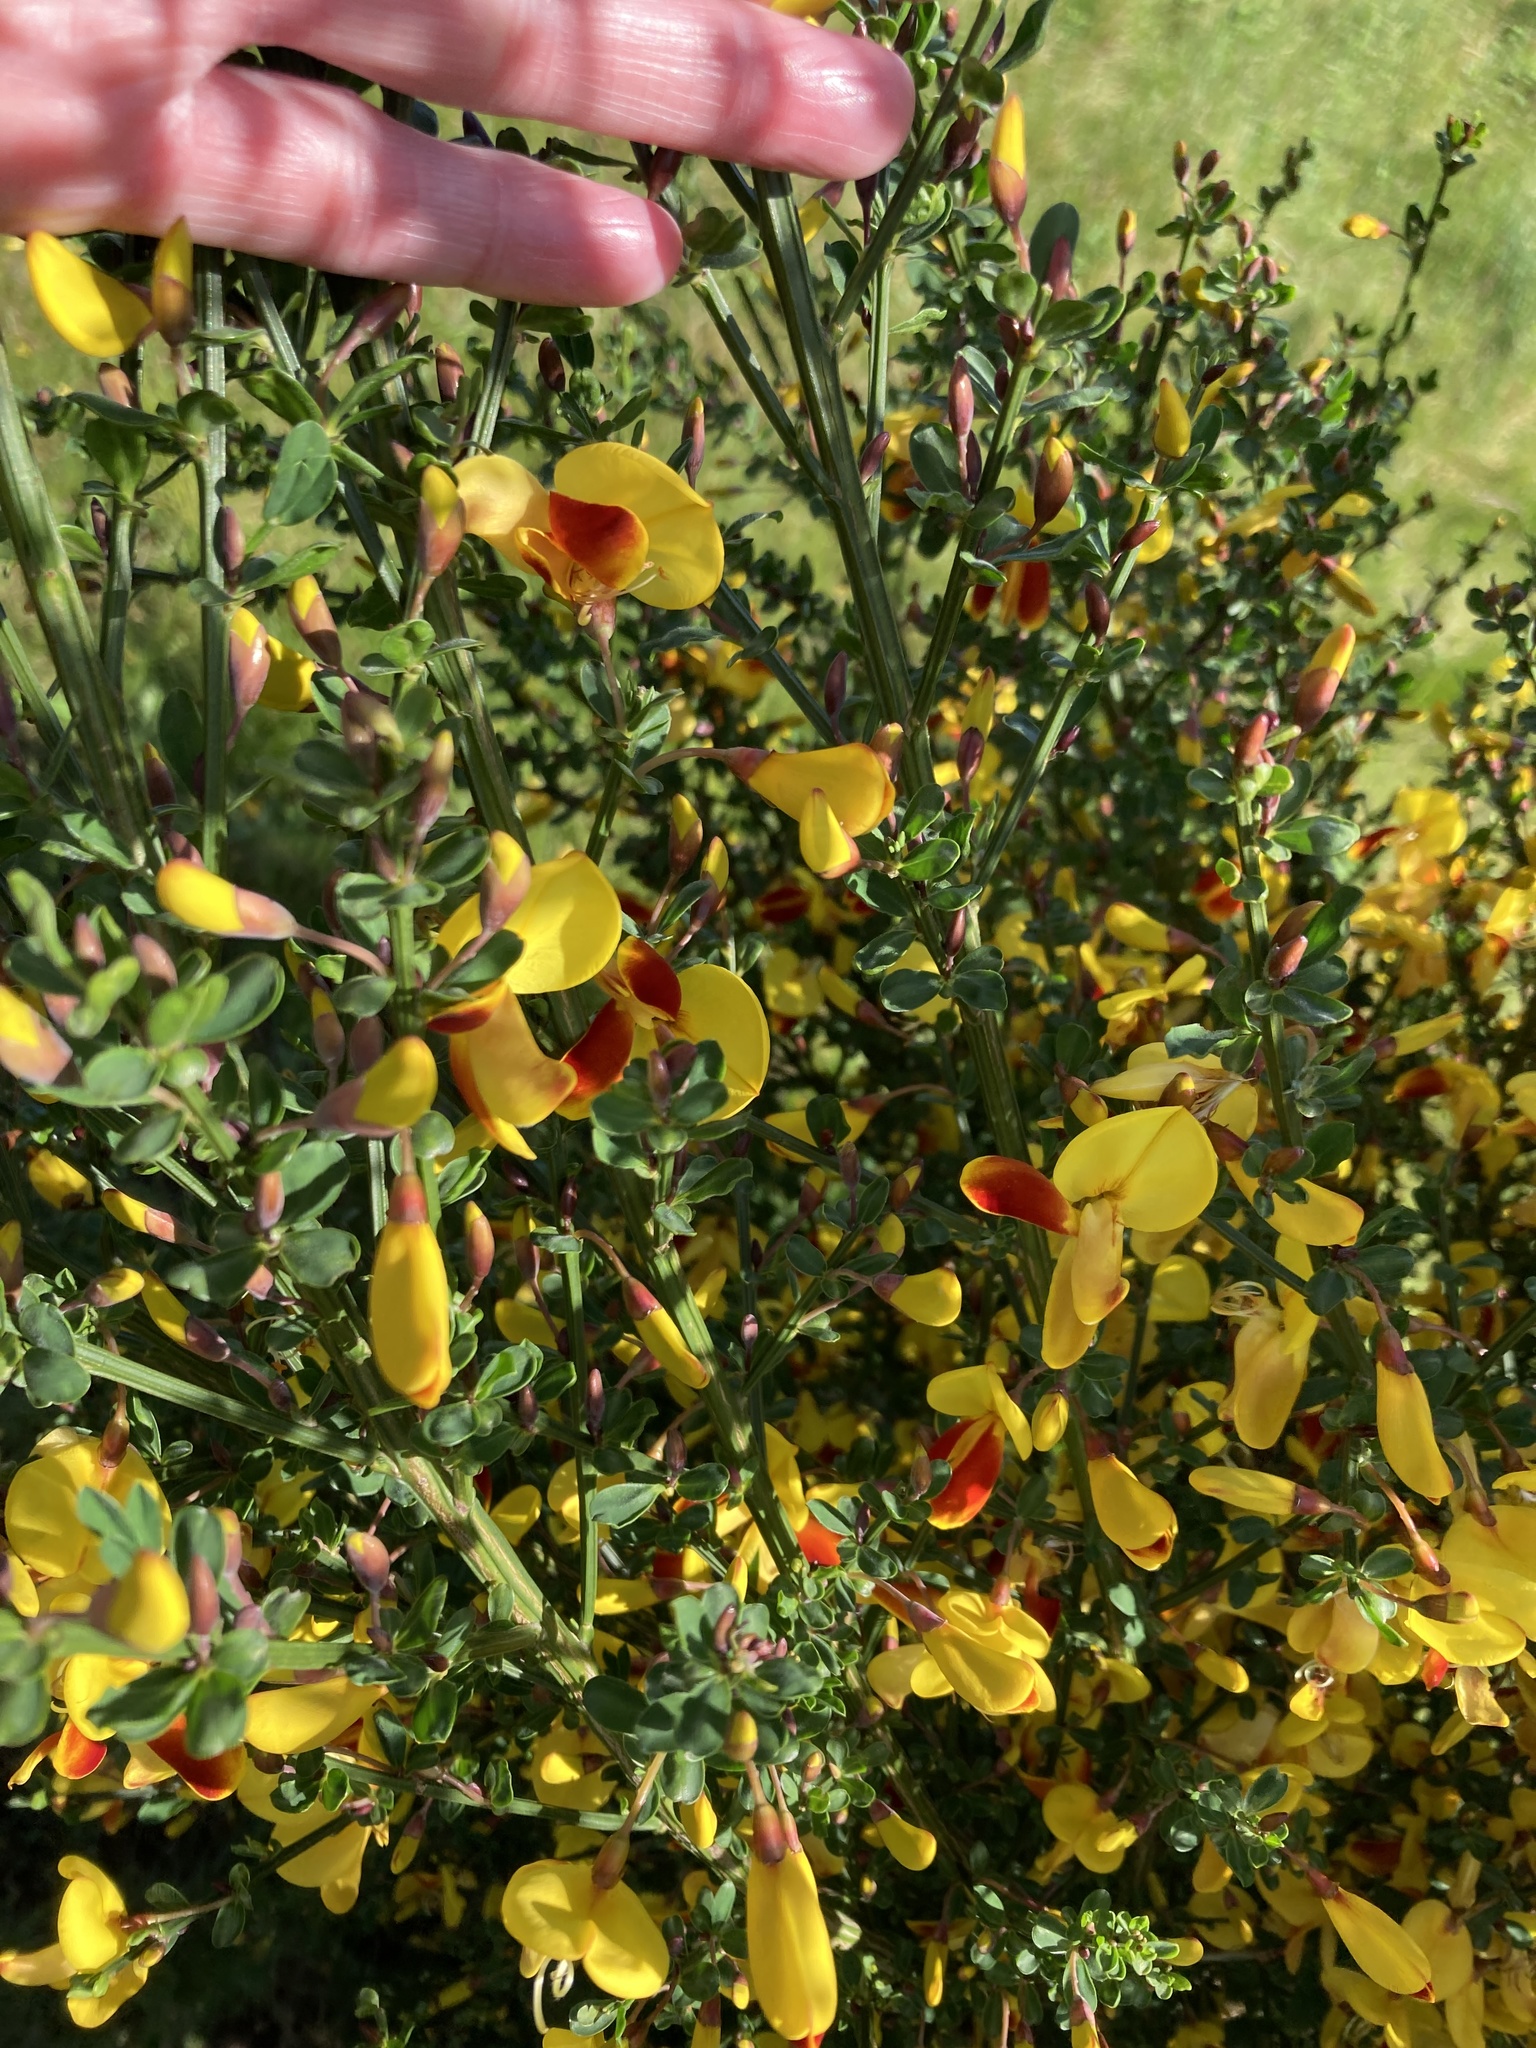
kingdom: Plantae
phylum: Tracheophyta
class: Magnoliopsida
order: Fabales
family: Fabaceae
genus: Cytisus
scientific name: Cytisus scoparius
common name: Scotch broom
